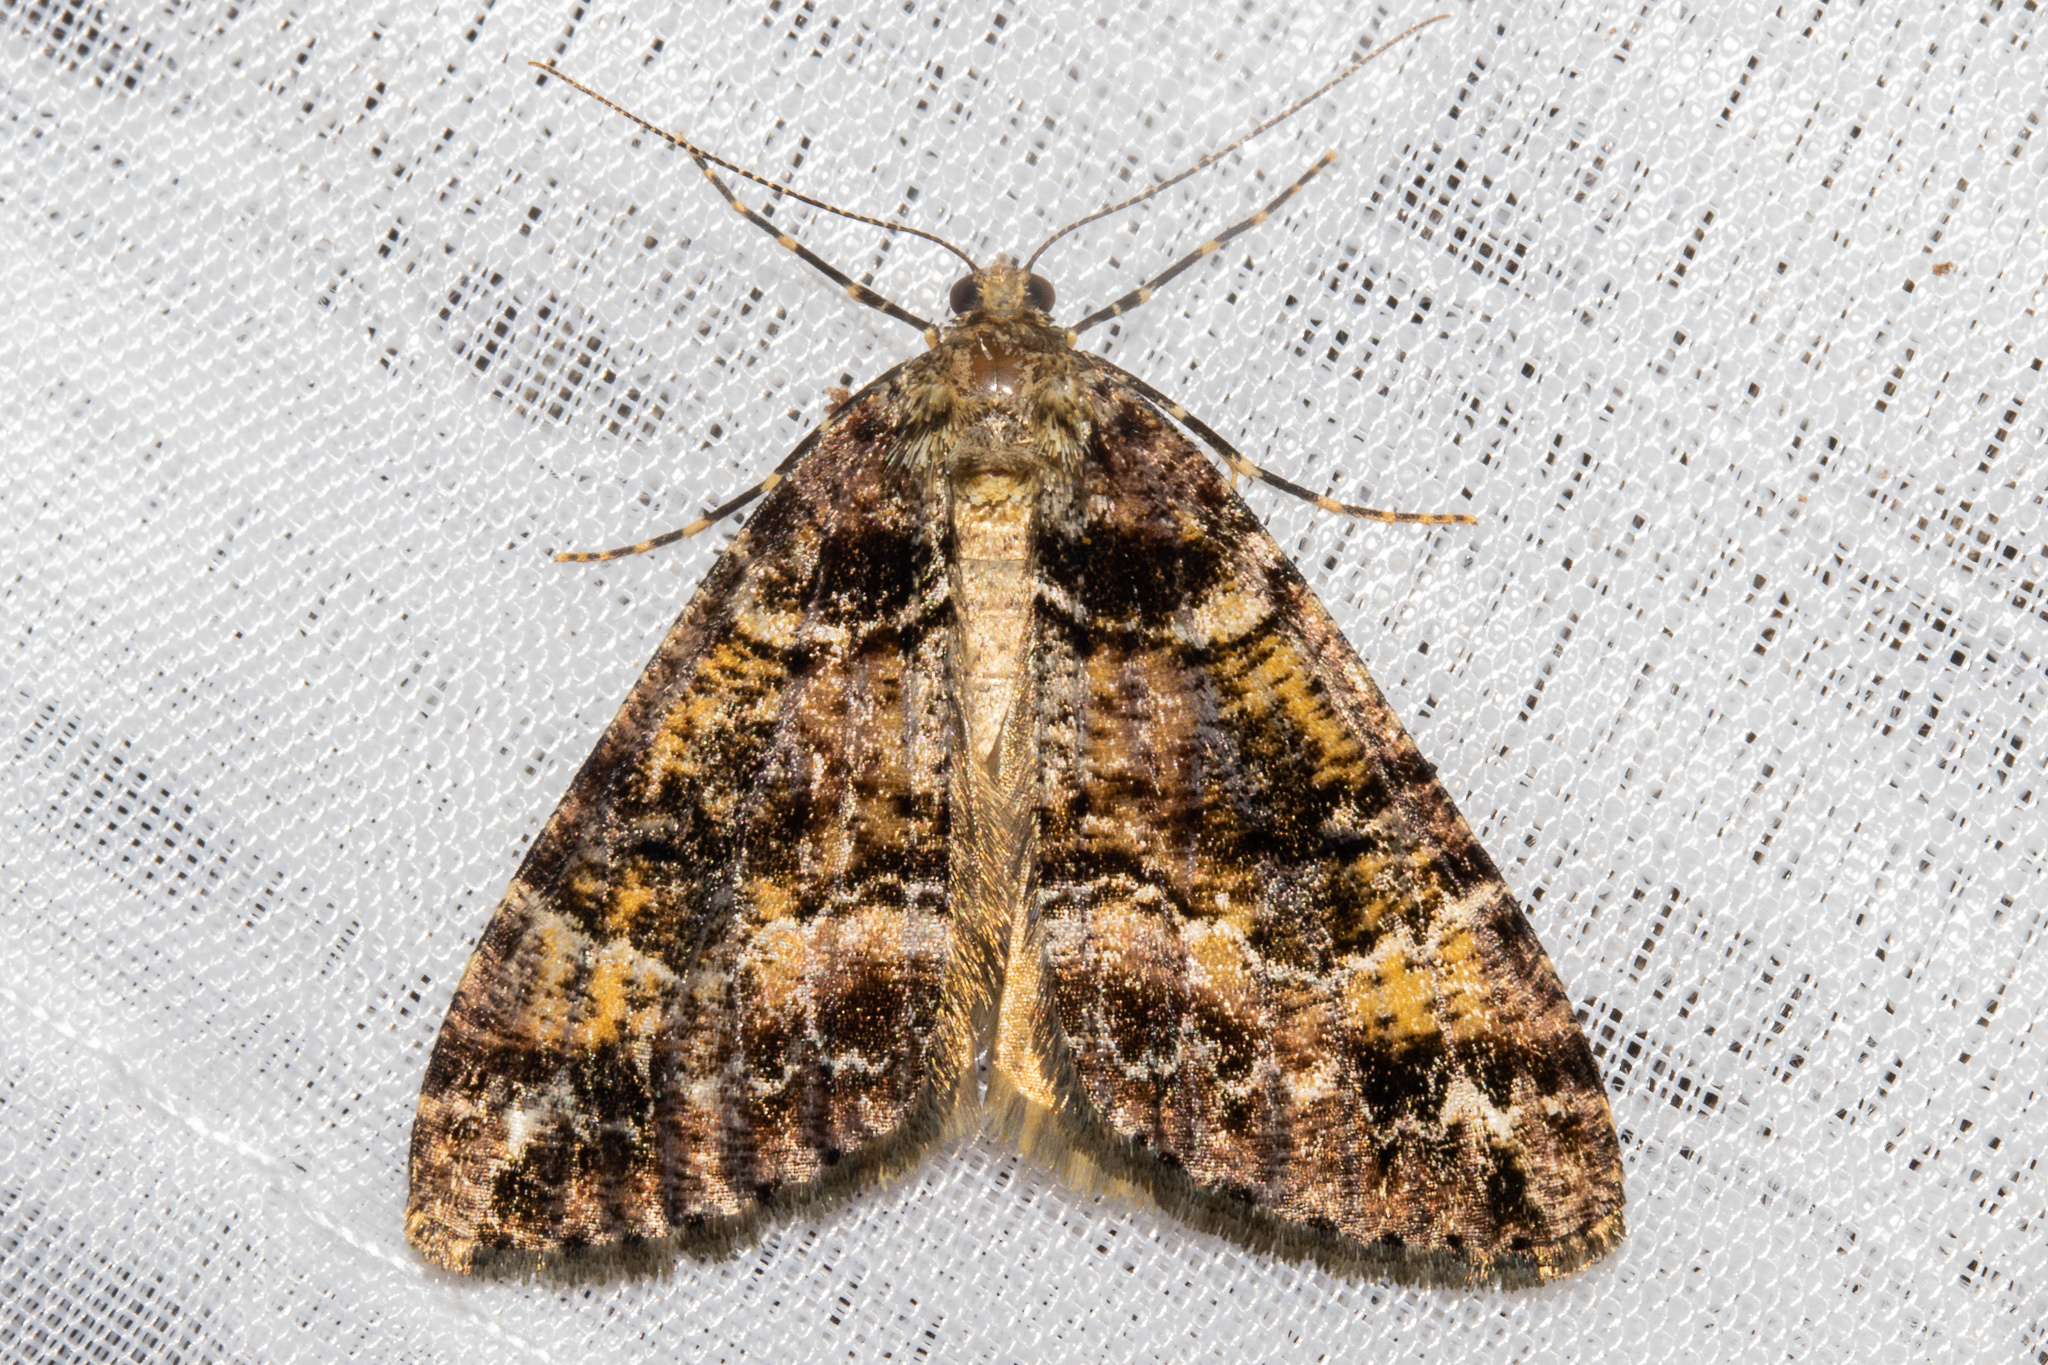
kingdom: Animalia
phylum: Arthropoda
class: Insecta
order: Lepidoptera
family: Geometridae
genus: Pseudocoremia
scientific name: Pseudocoremia productata
